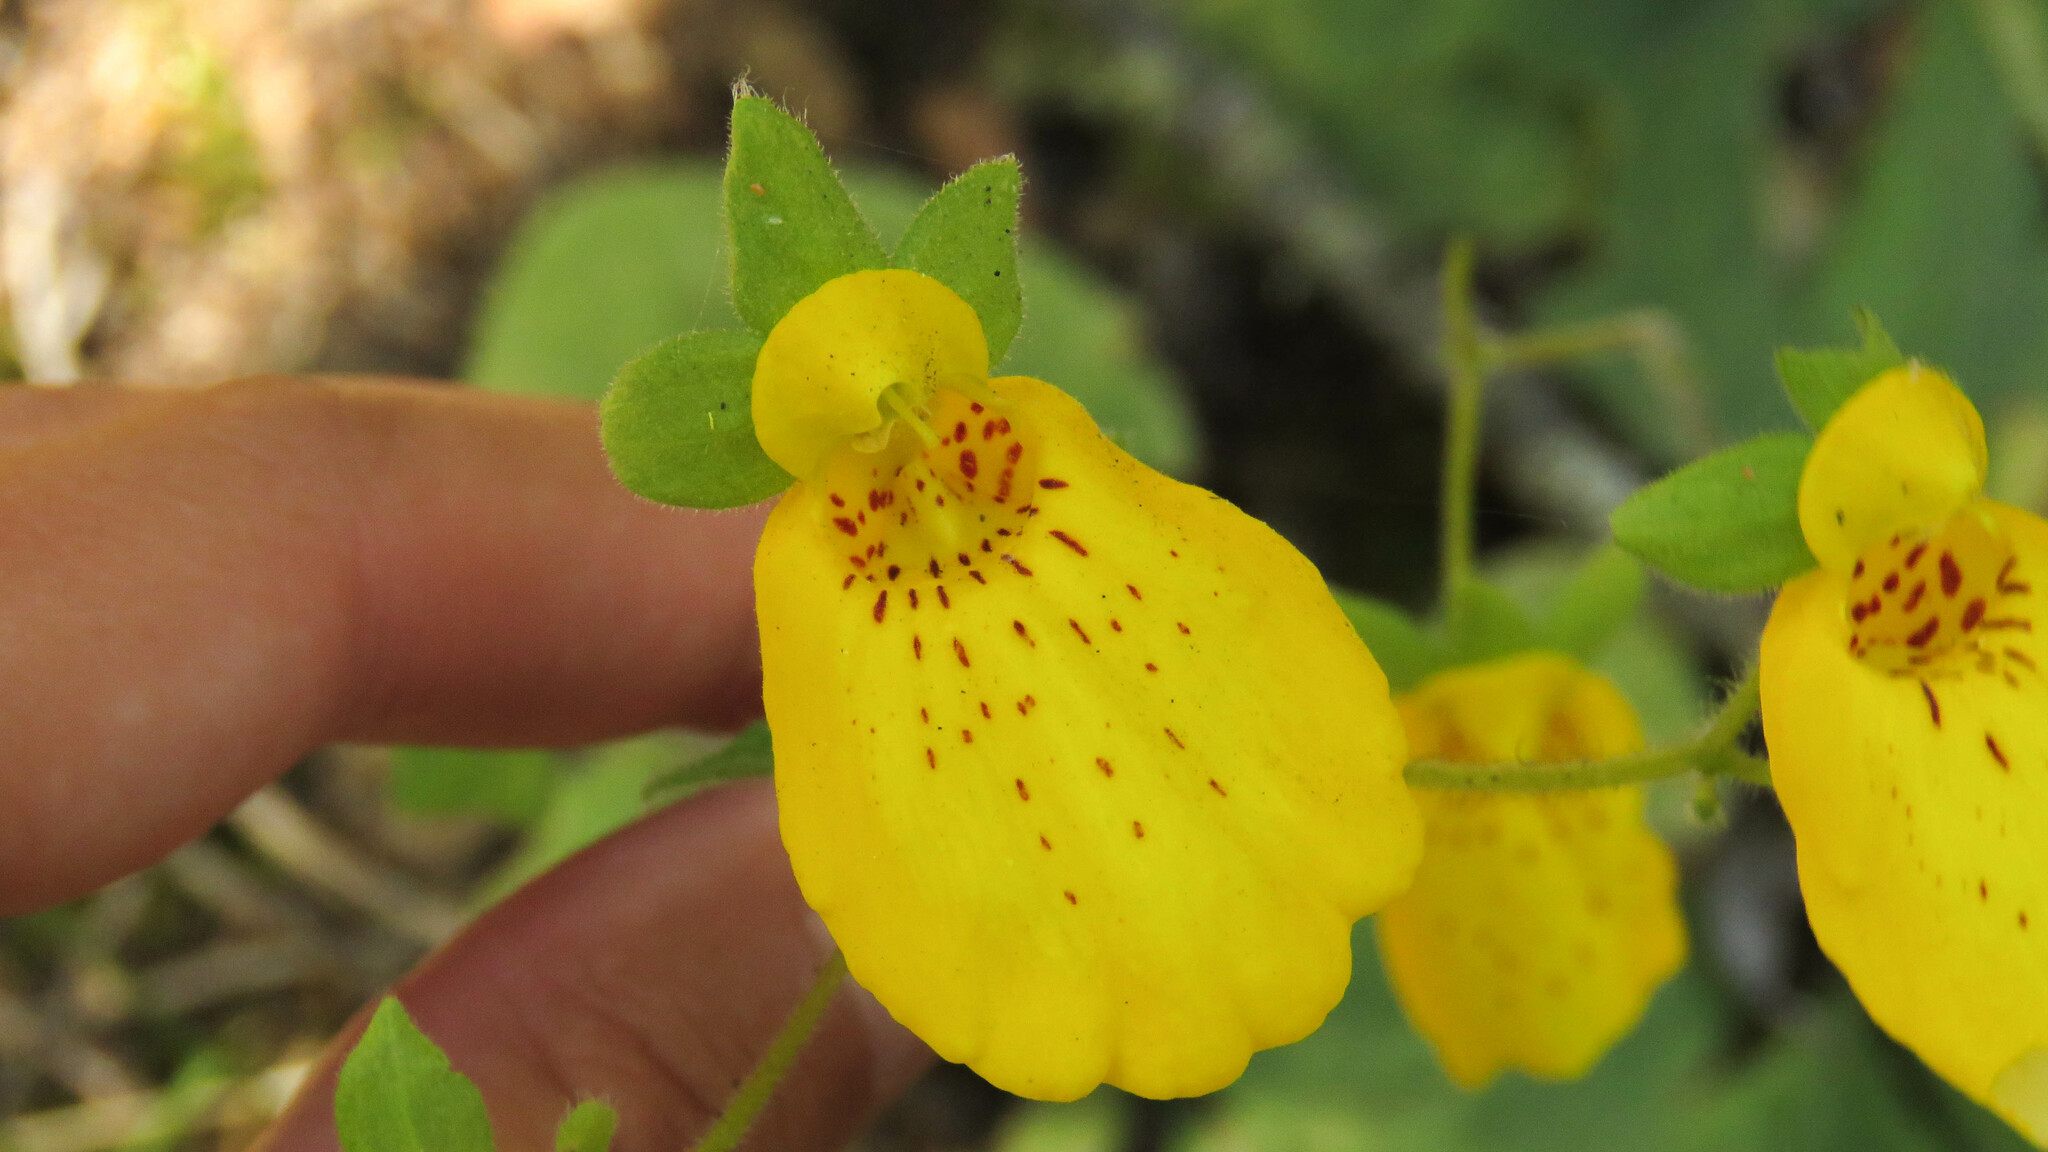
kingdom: Plantae
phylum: Tracheophyta
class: Magnoliopsida
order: Lamiales
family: Calceolariaceae
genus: Calceolaria
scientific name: Calceolaria crenatiflora
